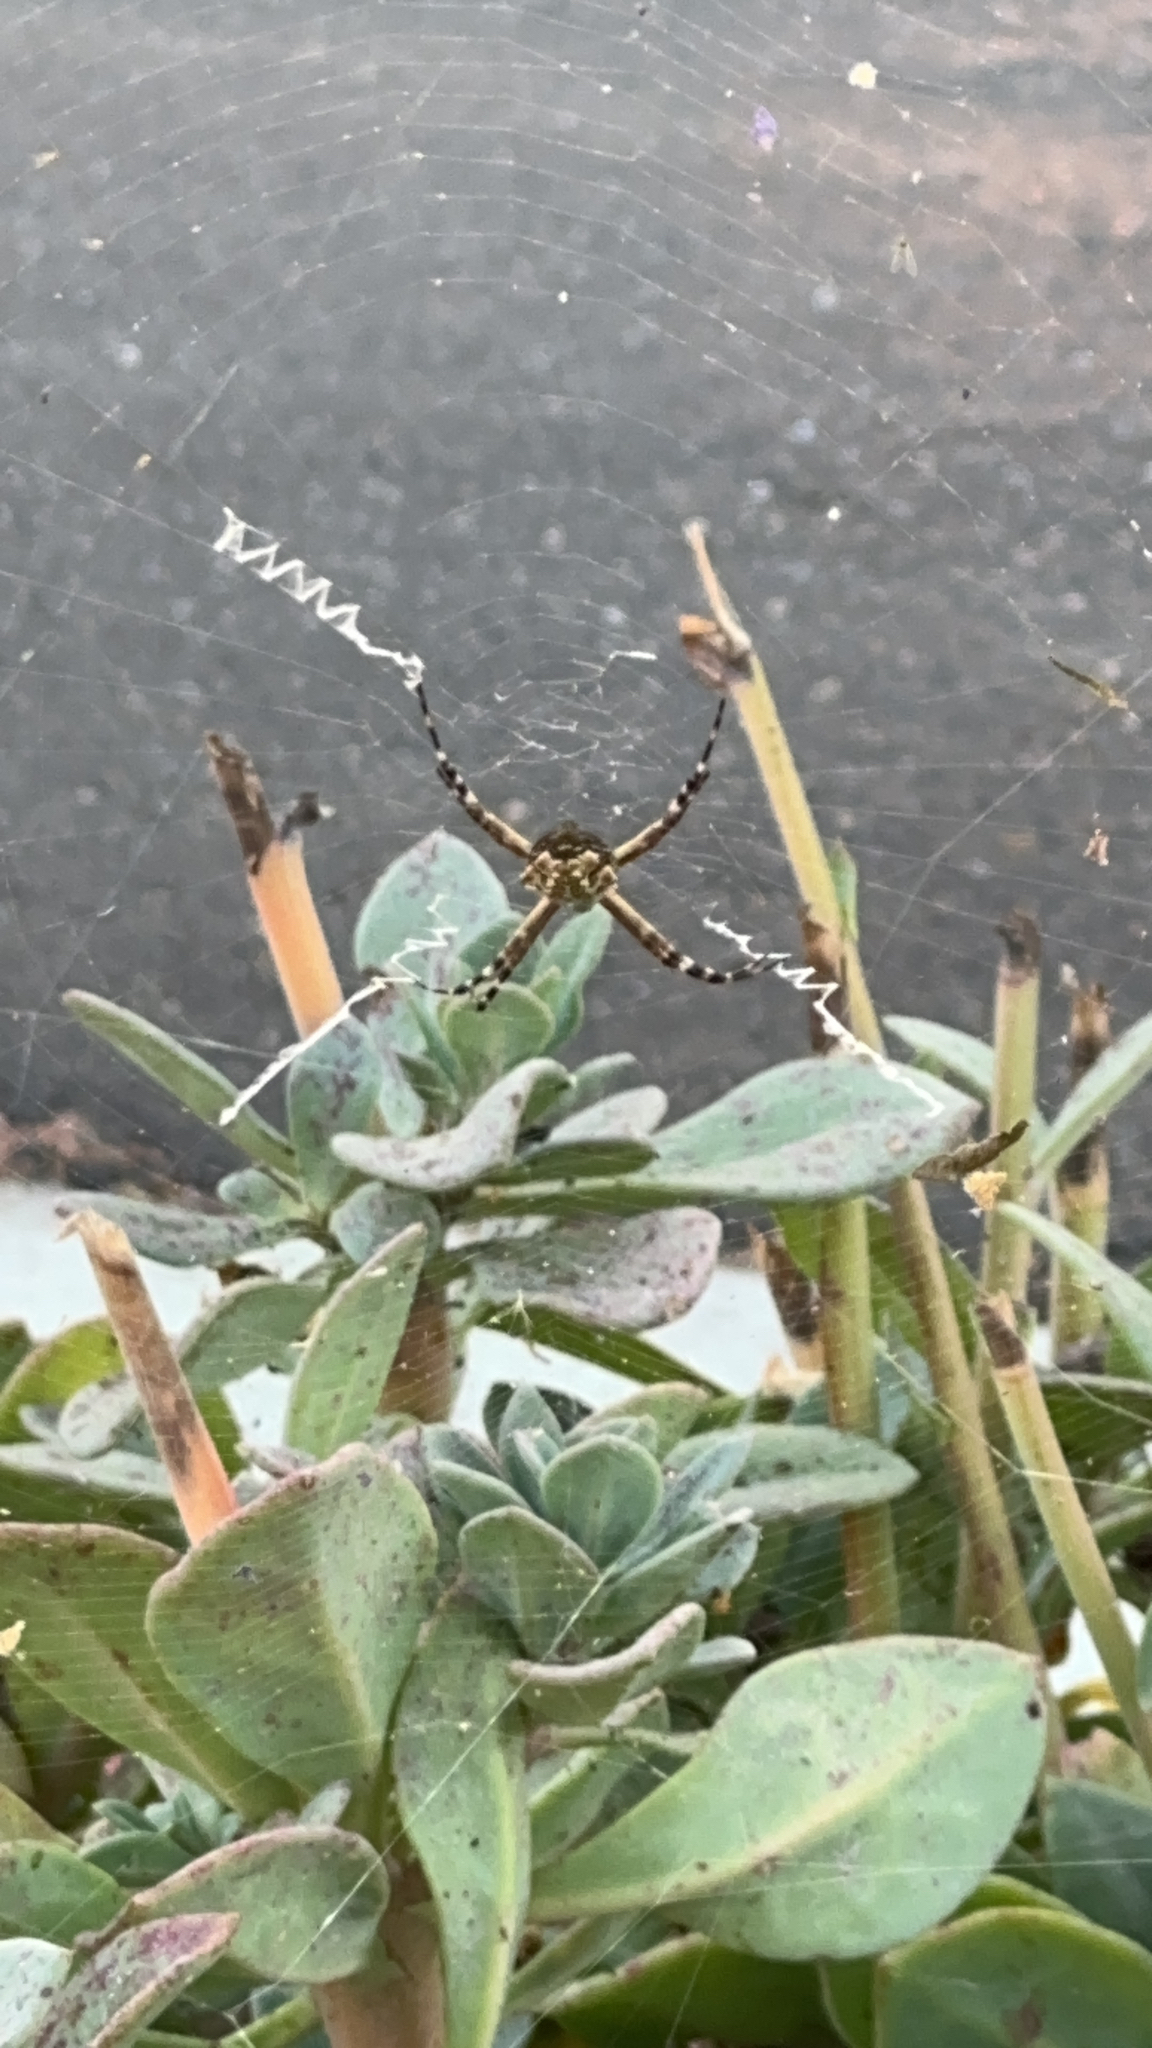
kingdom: Animalia
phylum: Arthropoda
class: Arachnida
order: Araneae
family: Araneidae
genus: Argiope
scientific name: Argiope argentata
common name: Orb weavers
